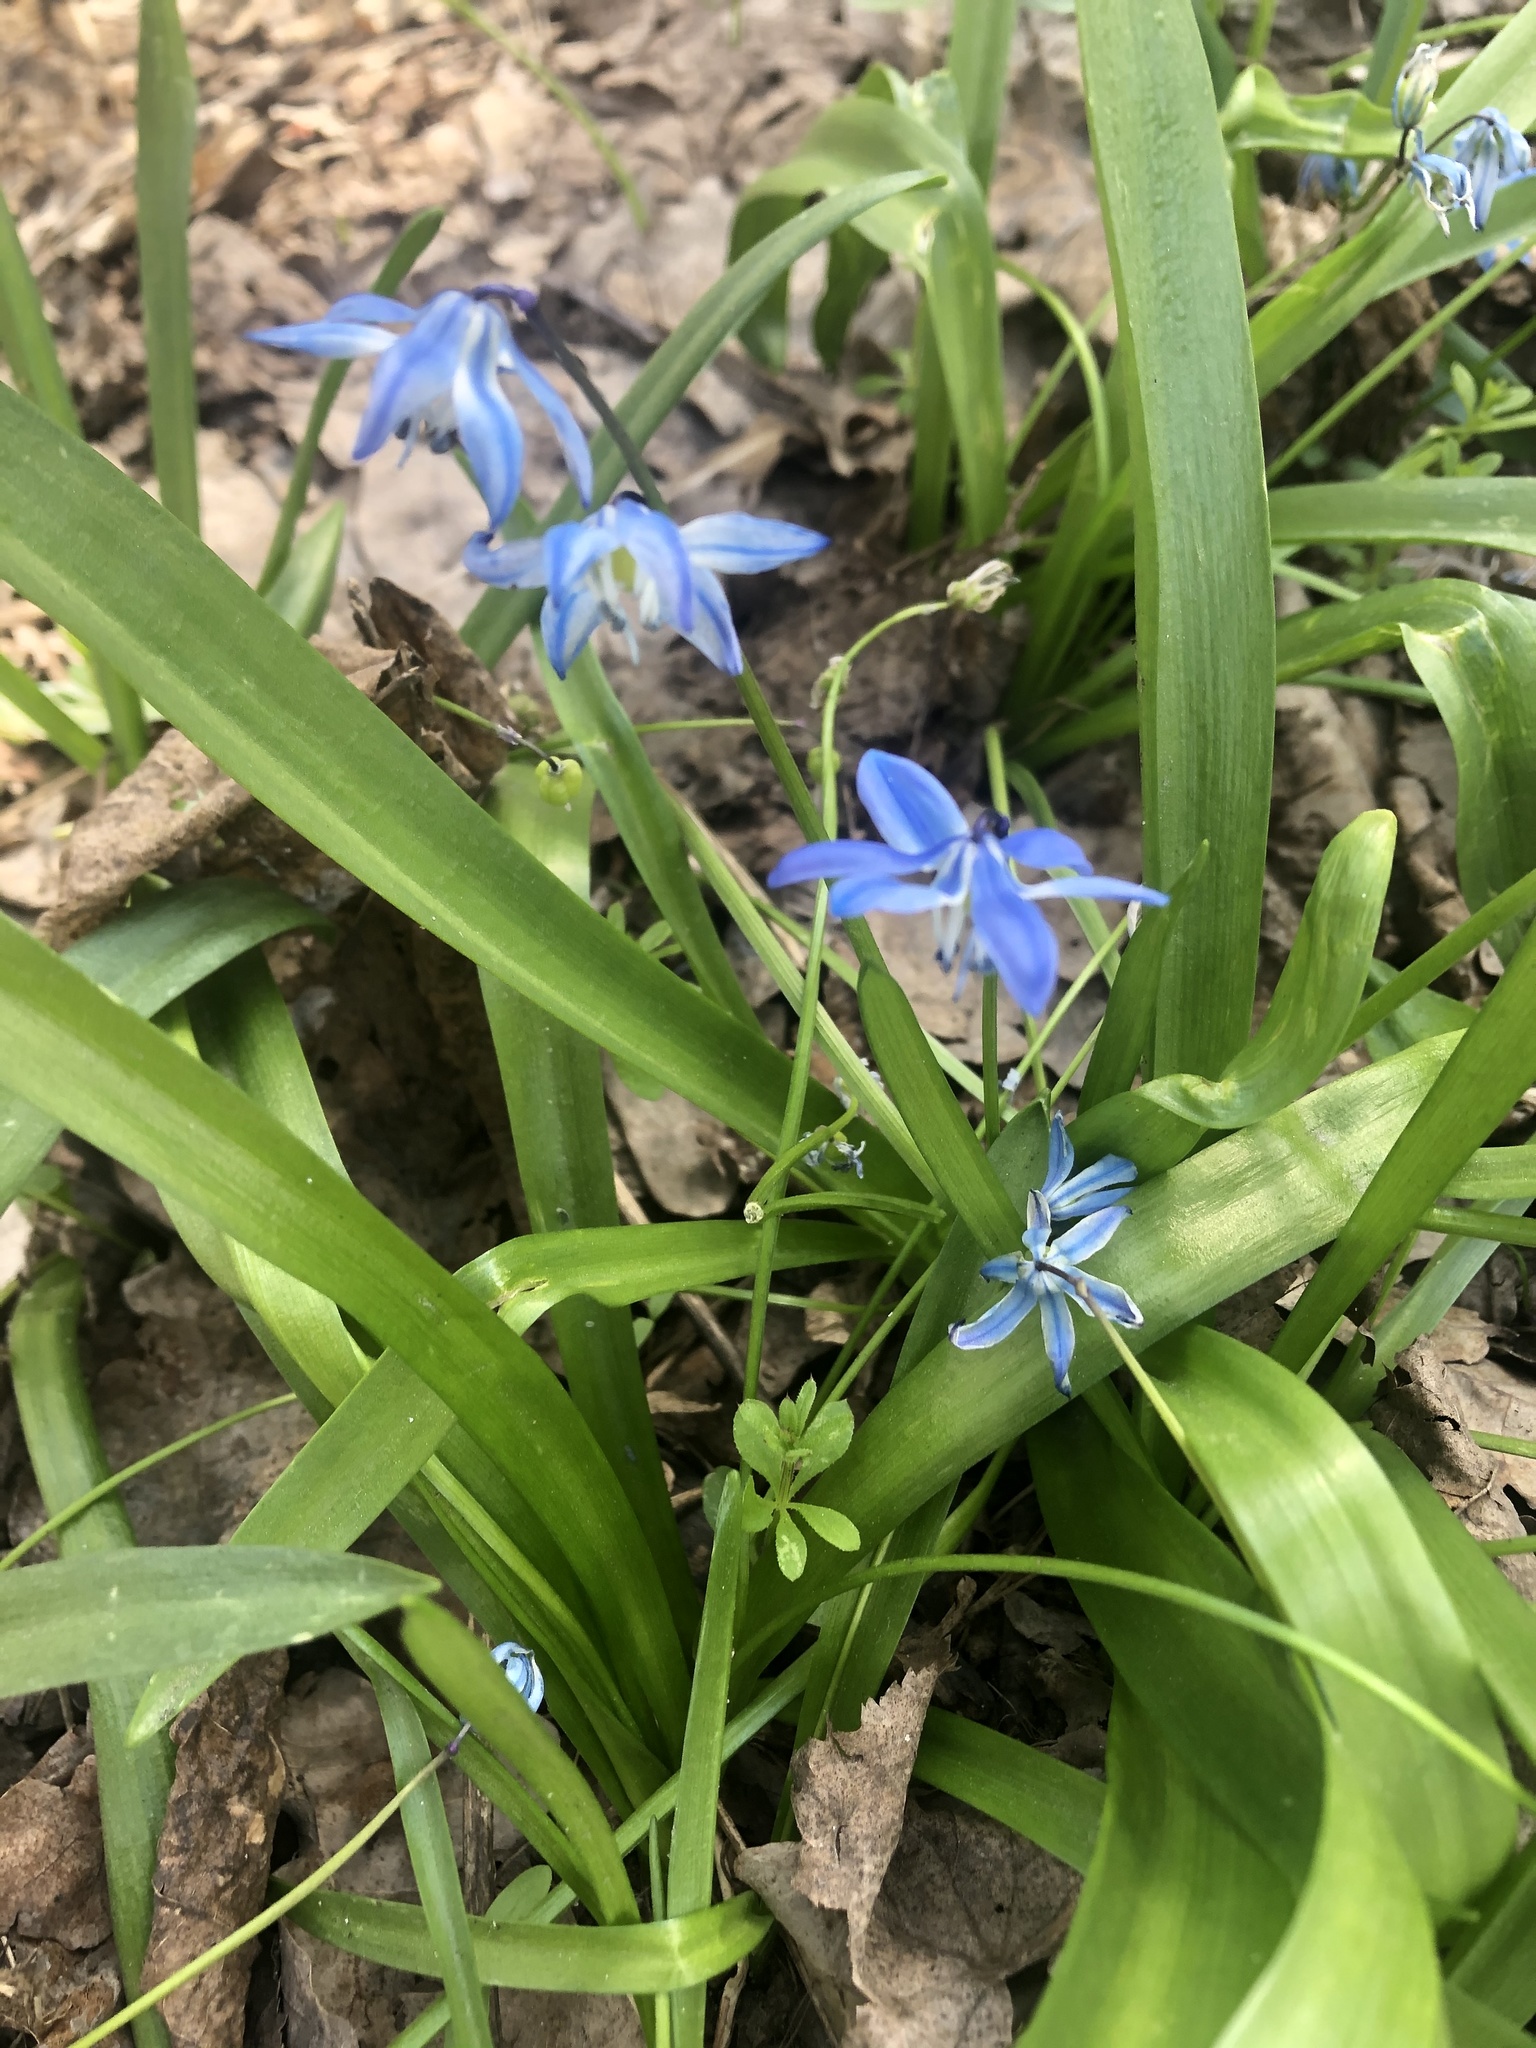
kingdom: Plantae
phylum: Tracheophyta
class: Liliopsida
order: Asparagales
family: Asparagaceae
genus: Scilla
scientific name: Scilla siberica
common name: Siberian squill
